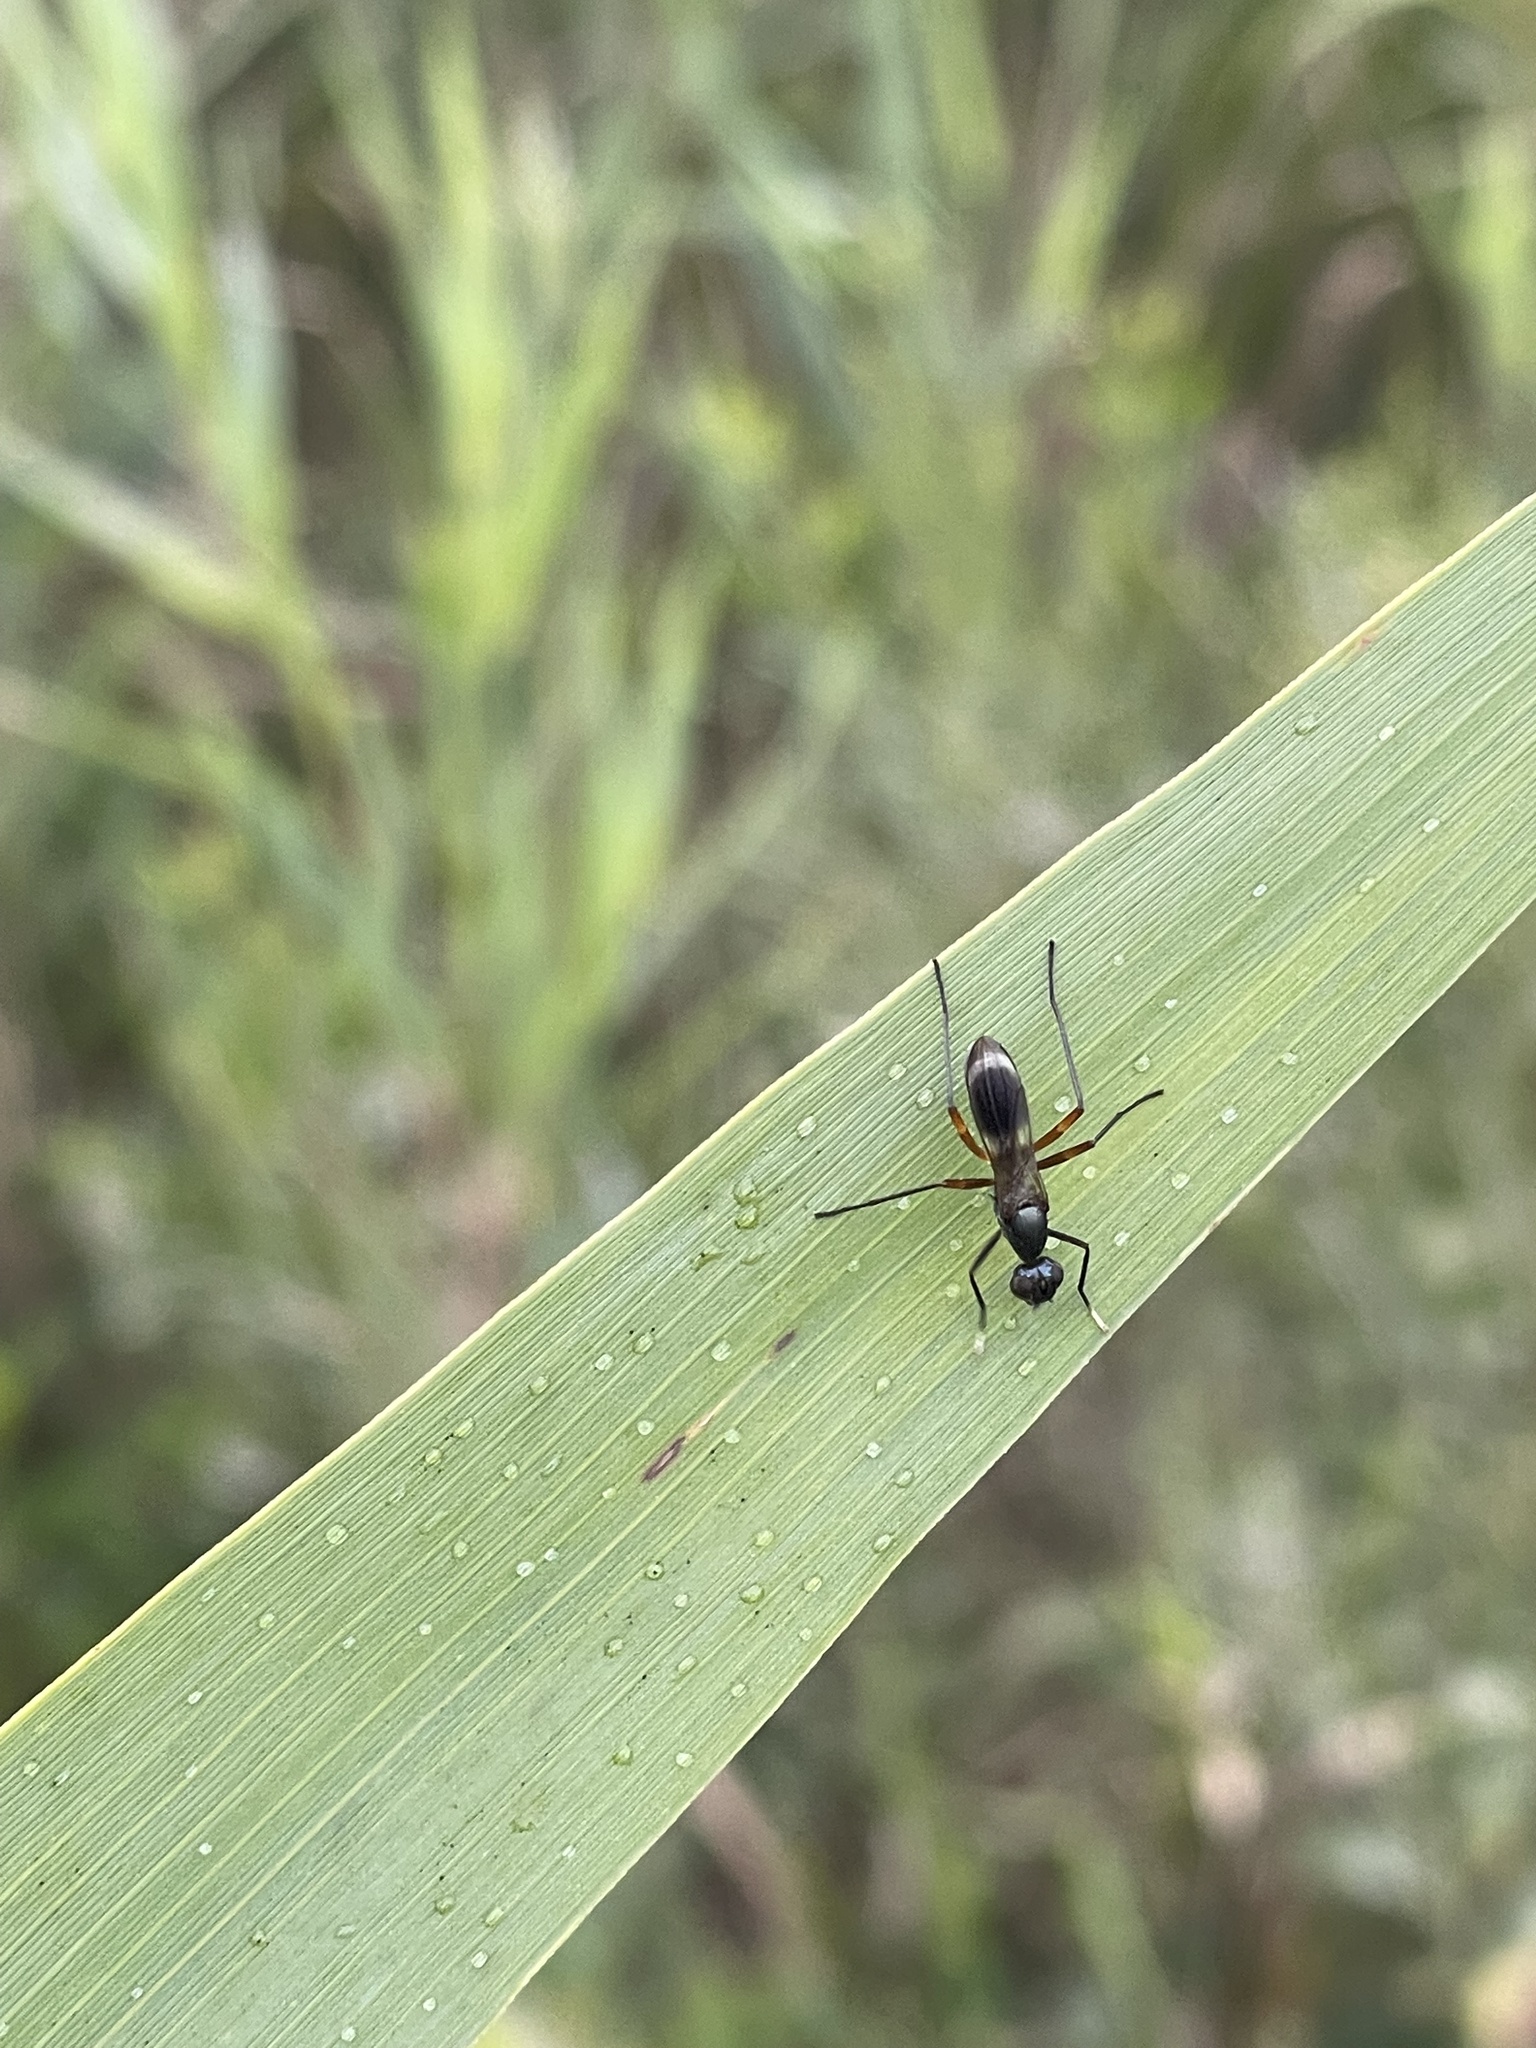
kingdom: Animalia
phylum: Arthropoda
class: Insecta
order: Diptera
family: Micropezidae
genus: Taeniaptera
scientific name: Taeniaptera trivittata
